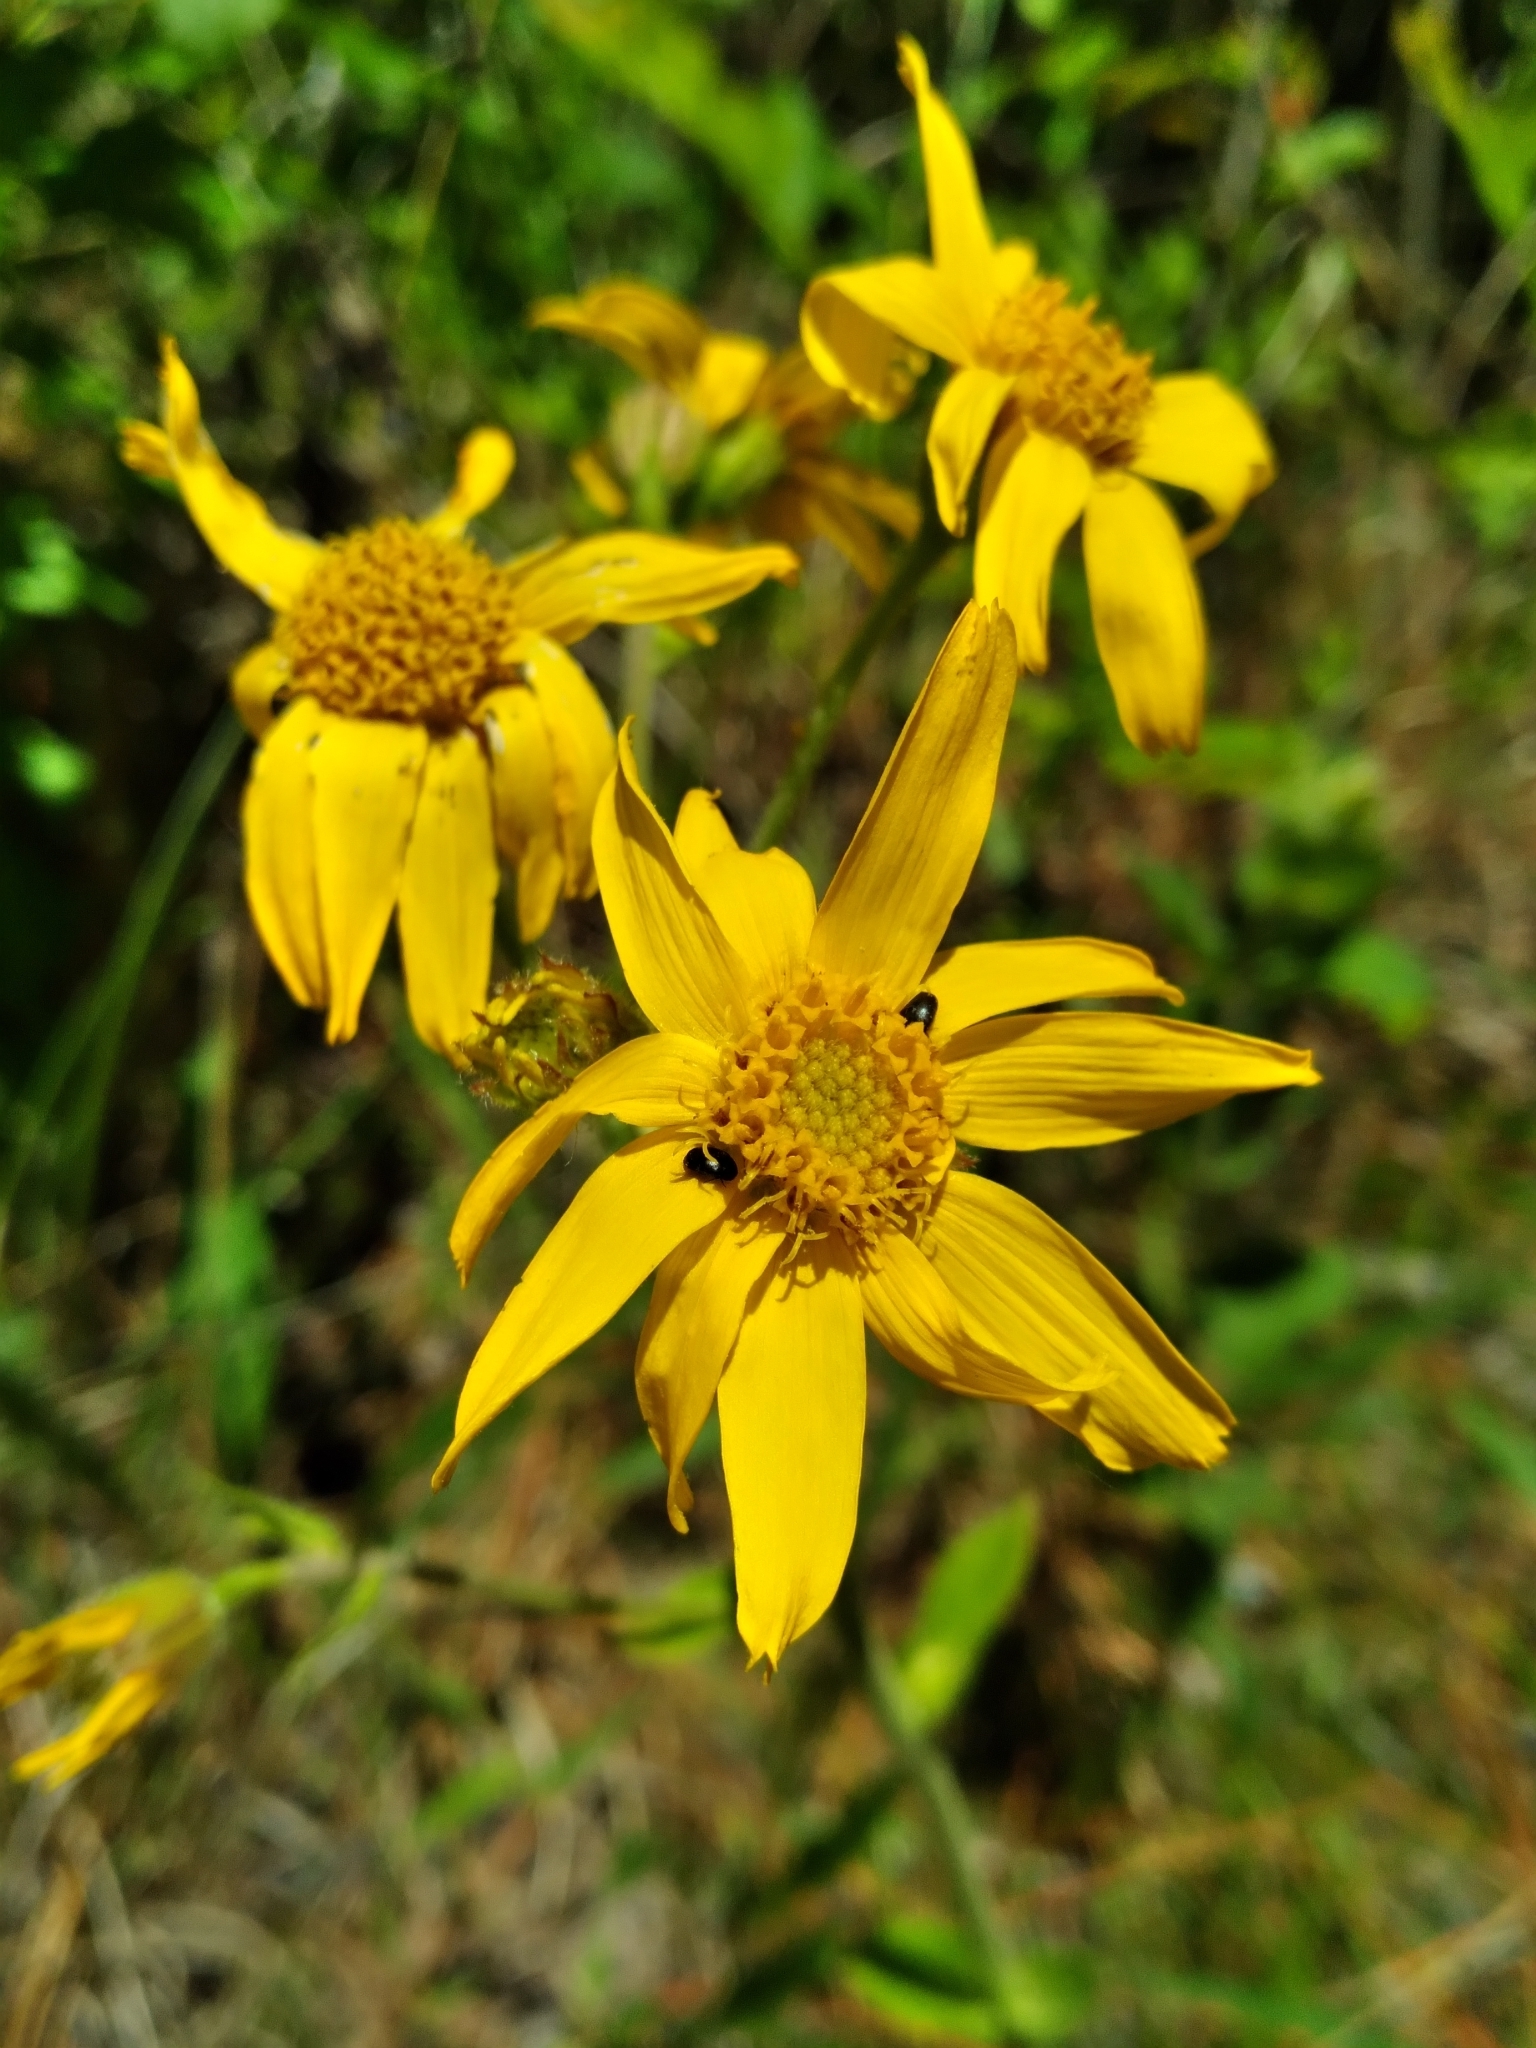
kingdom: Plantae
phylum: Tracheophyta
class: Magnoliopsida
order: Asterales
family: Asteraceae
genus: Arnica
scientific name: Arnica acaulis
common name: Common leopardbane
